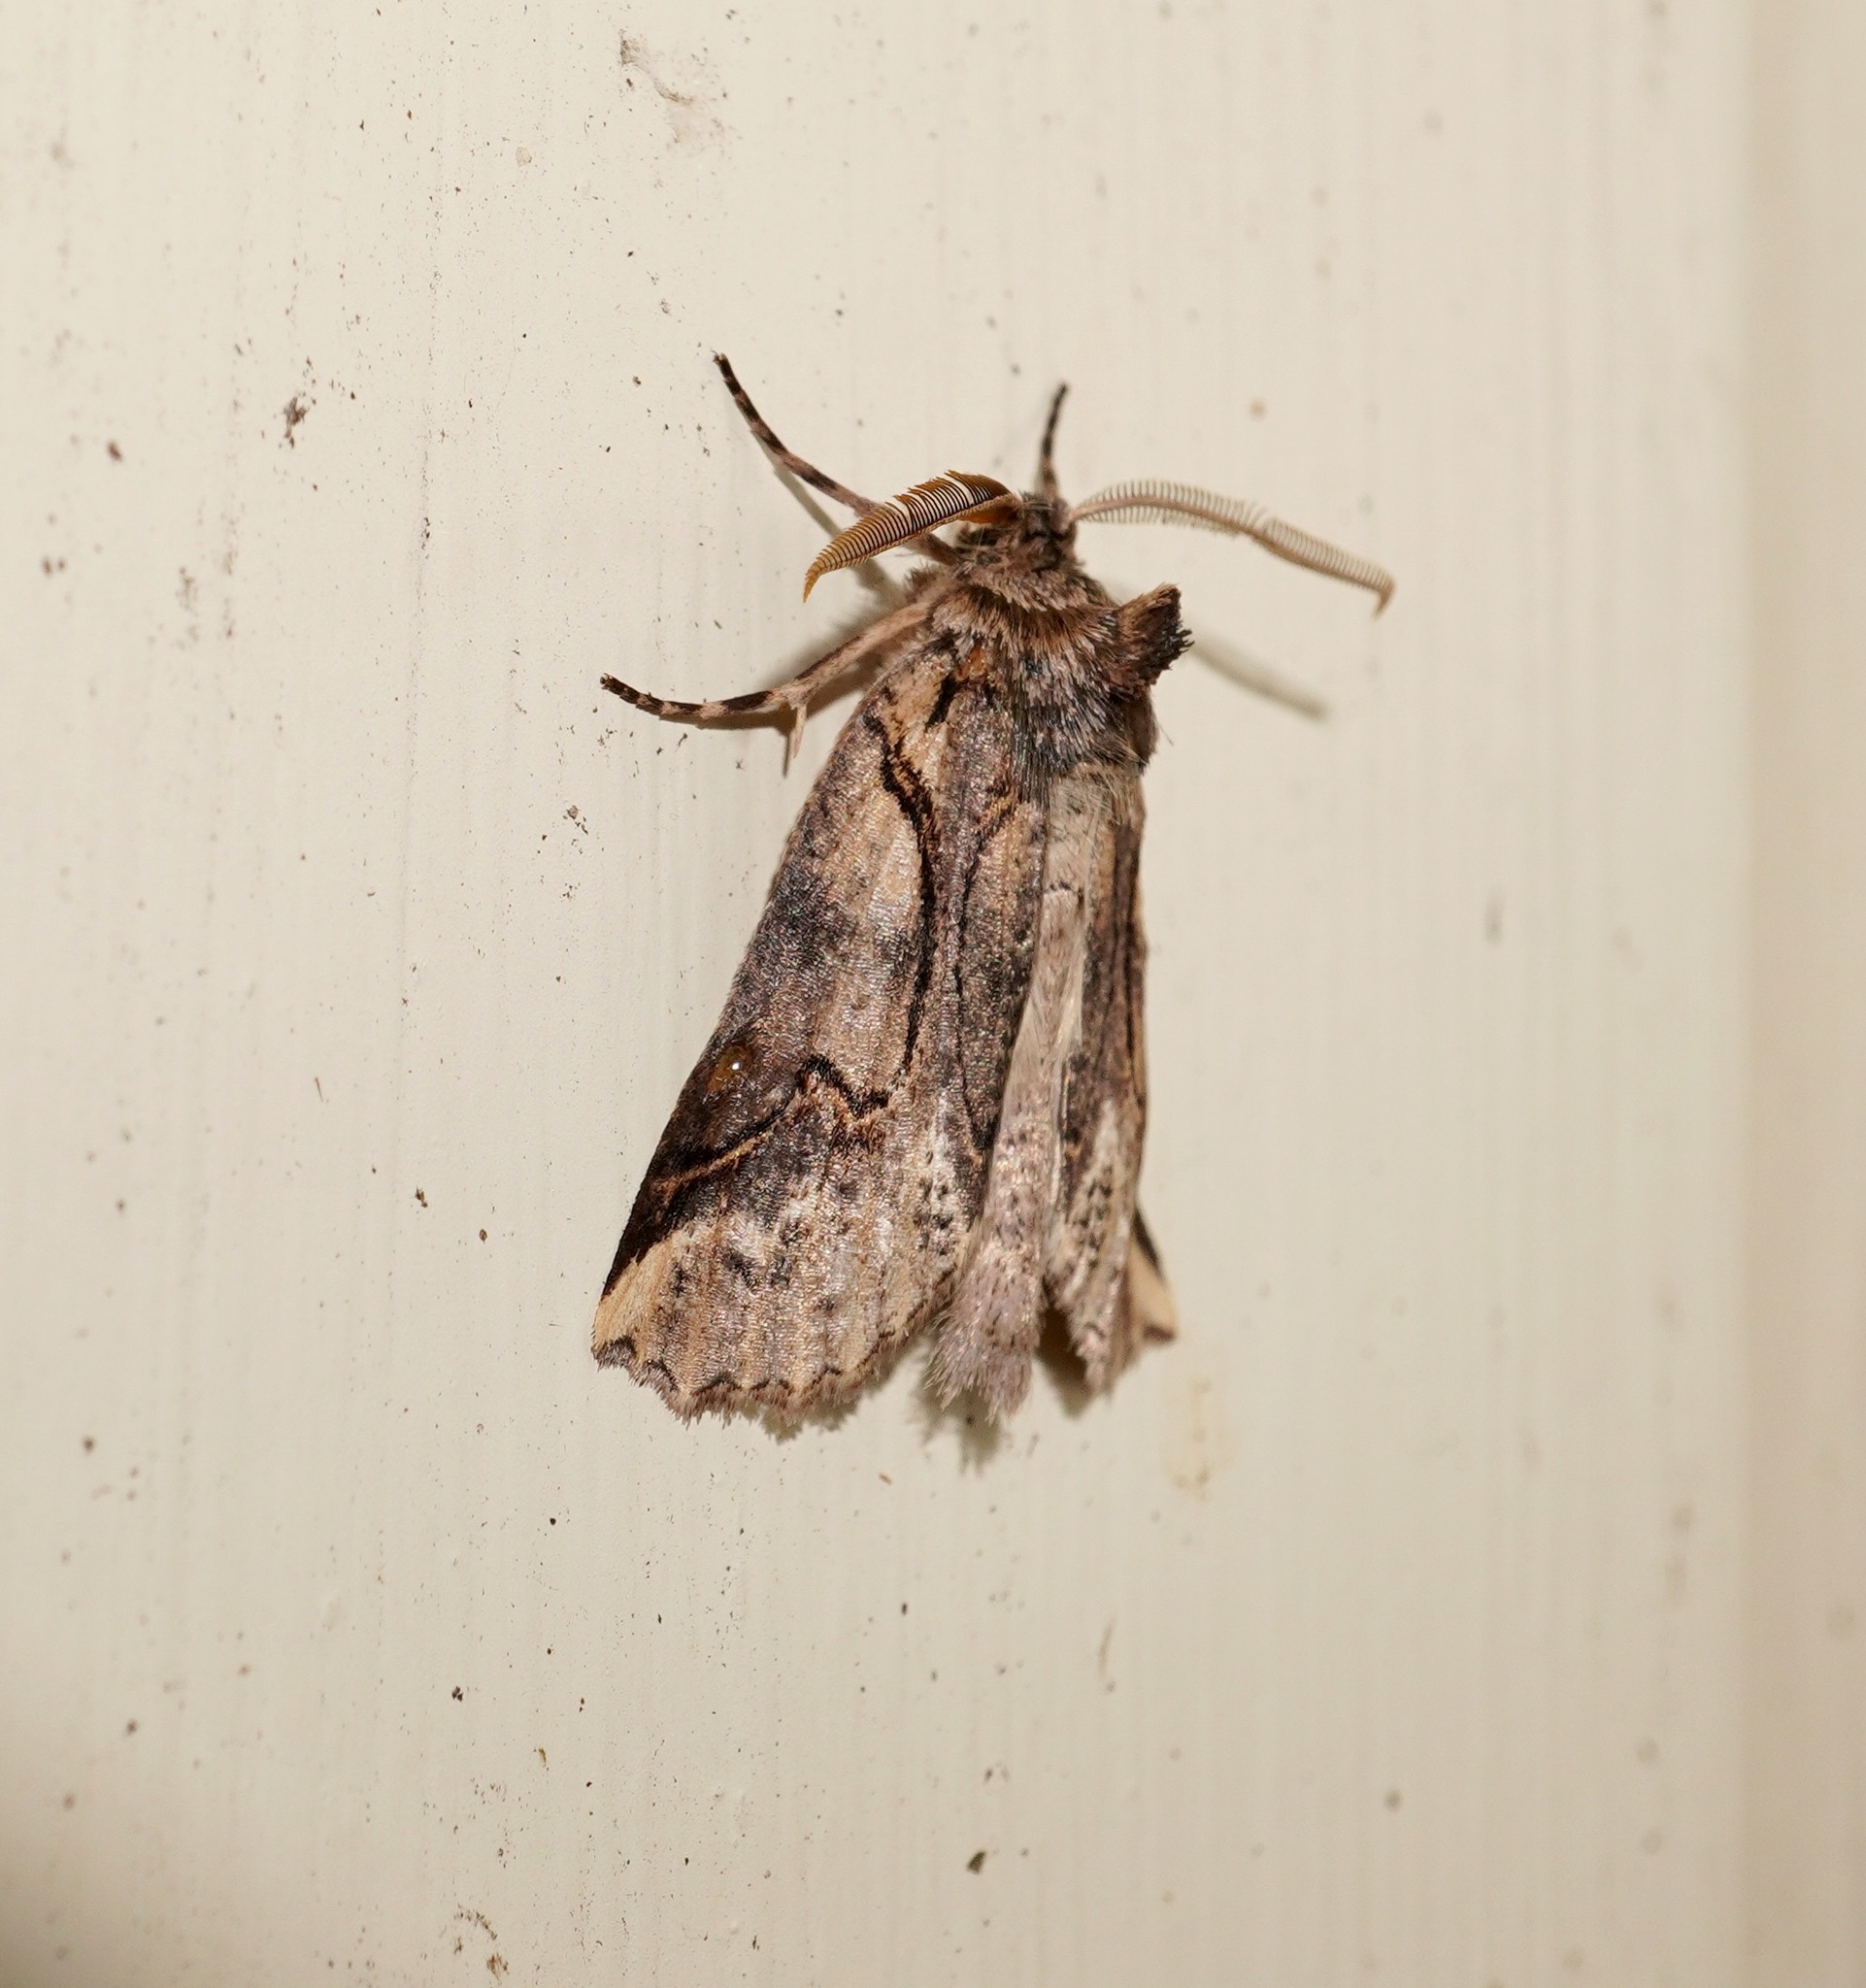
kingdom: Animalia
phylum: Arthropoda
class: Insecta
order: Lepidoptera
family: Geometridae
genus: Declana
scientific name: Declana
